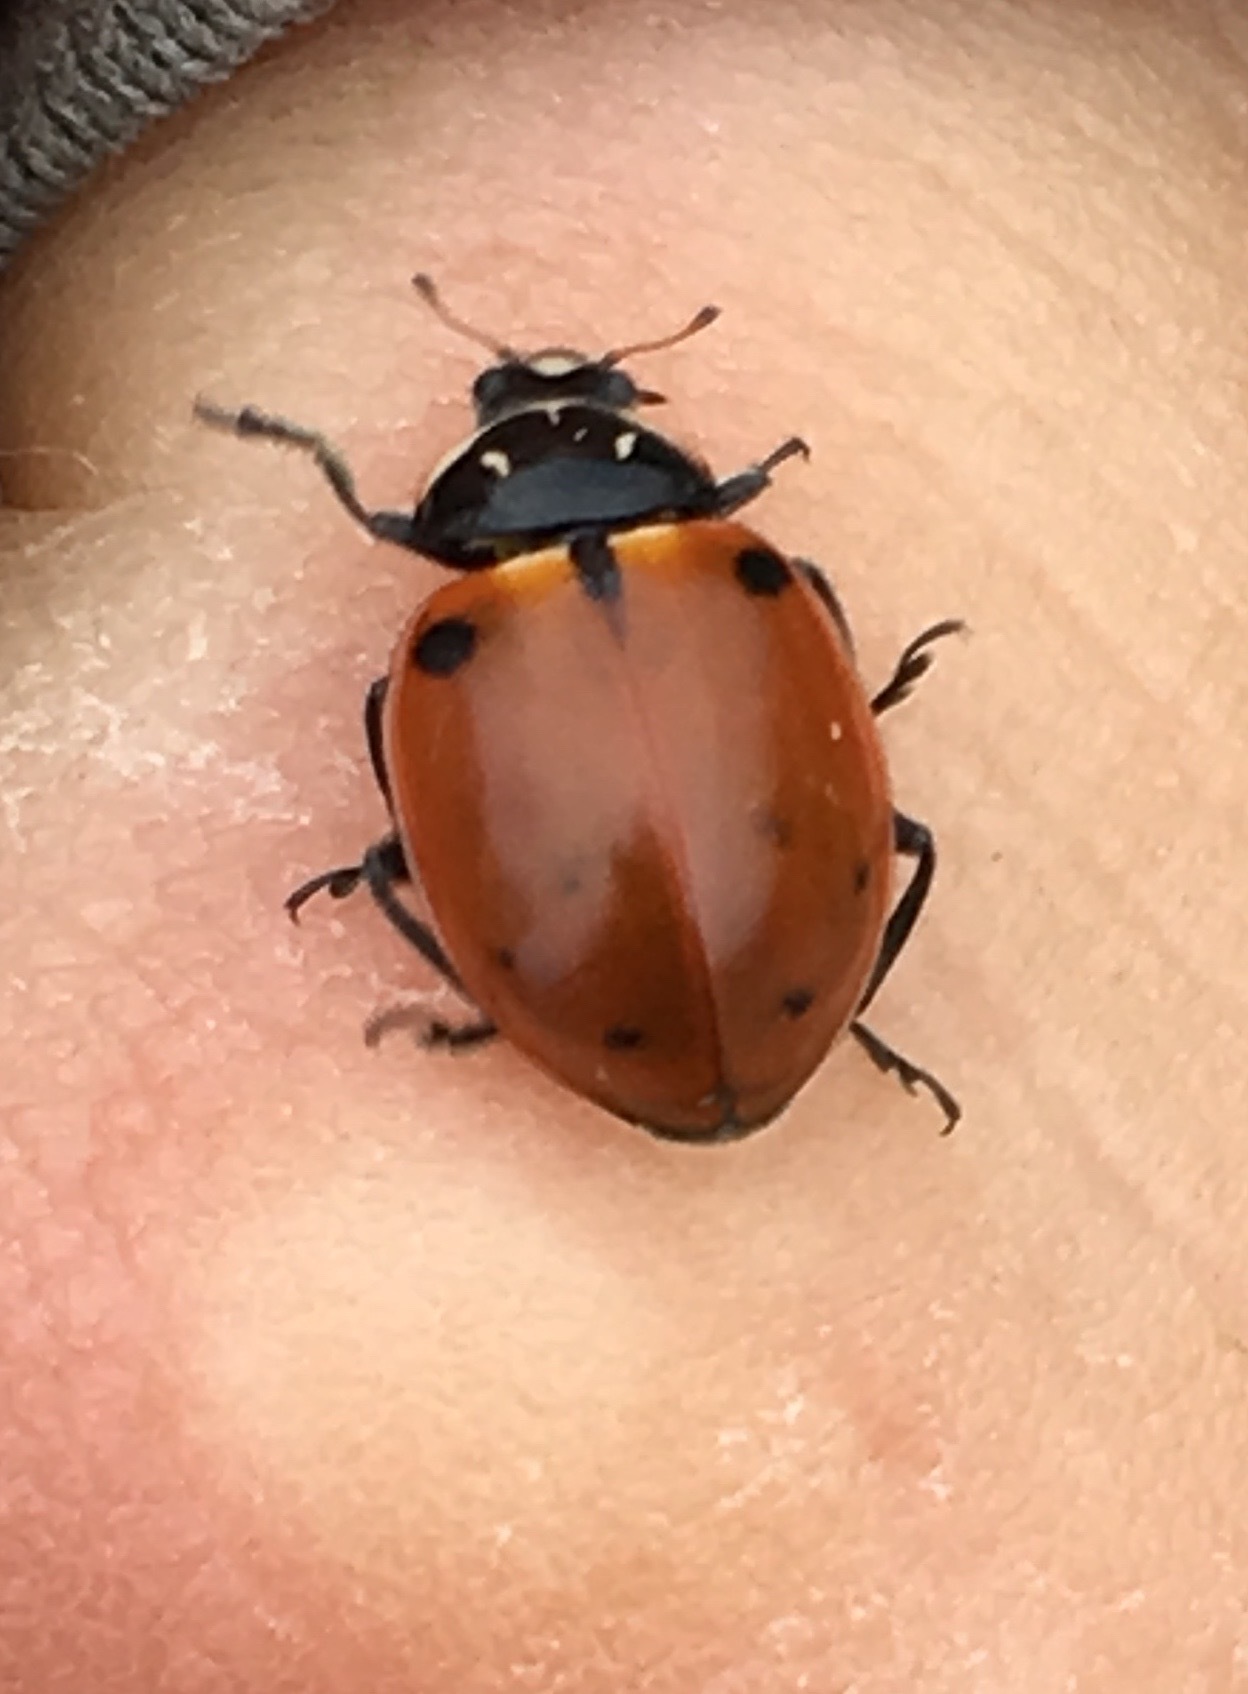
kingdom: Animalia
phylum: Arthropoda
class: Insecta
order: Coleoptera
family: Coccinellidae
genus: Hippodamia
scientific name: Hippodamia quinquesignata
